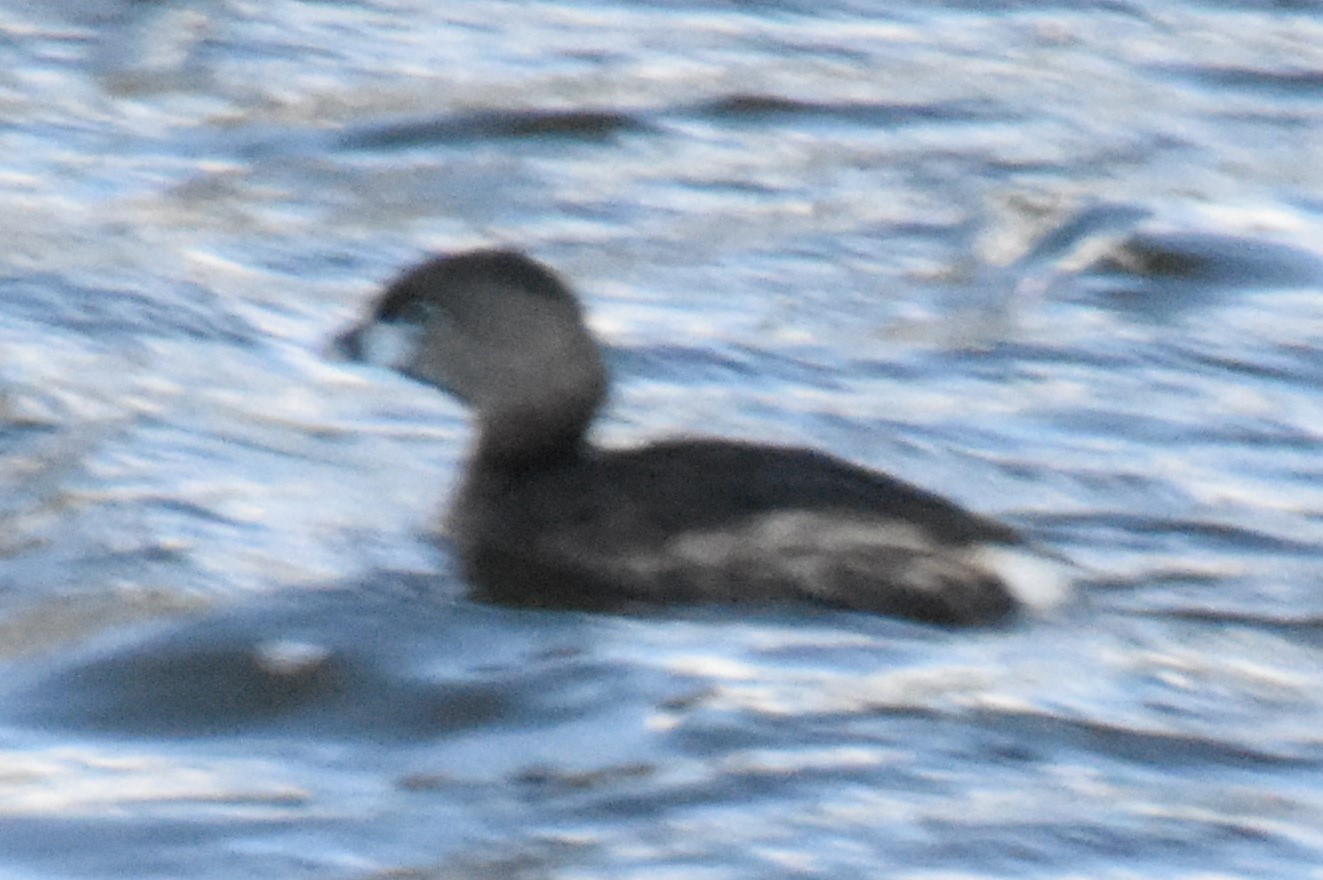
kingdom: Animalia
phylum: Chordata
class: Aves
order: Podicipediformes
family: Podicipedidae
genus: Podilymbus
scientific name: Podilymbus podiceps
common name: Pied-billed grebe
